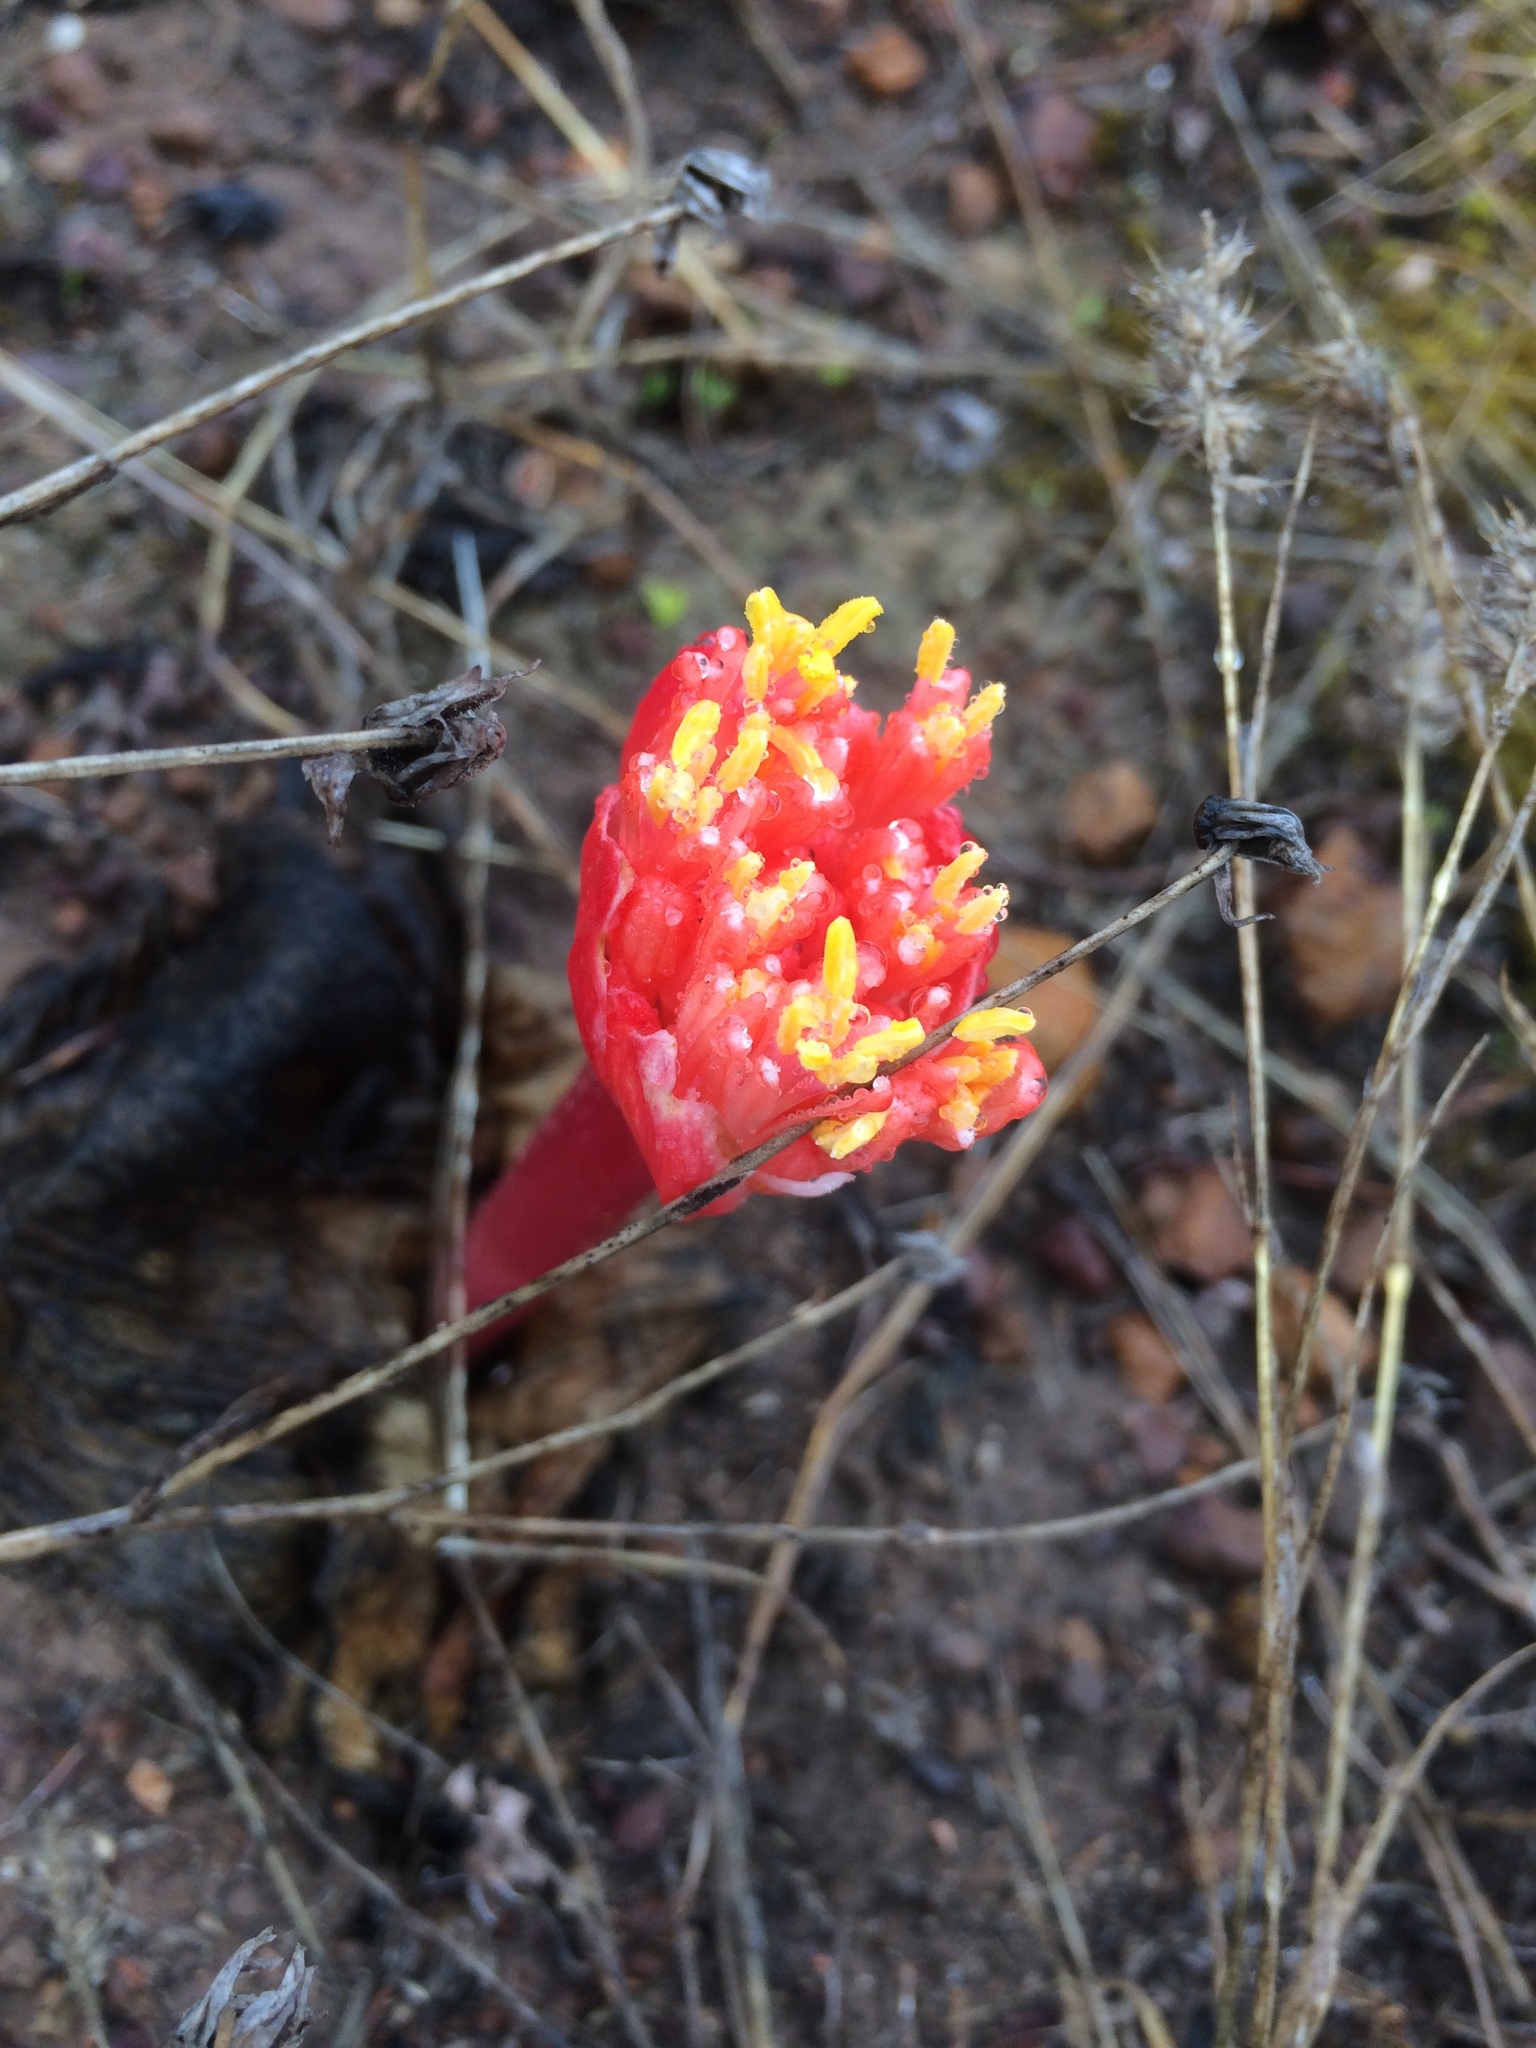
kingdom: Plantae
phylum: Tracheophyta
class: Liliopsida
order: Asparagales
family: Amaryllidaceae
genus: Haemanthus
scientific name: Haemanthus sanguineus
